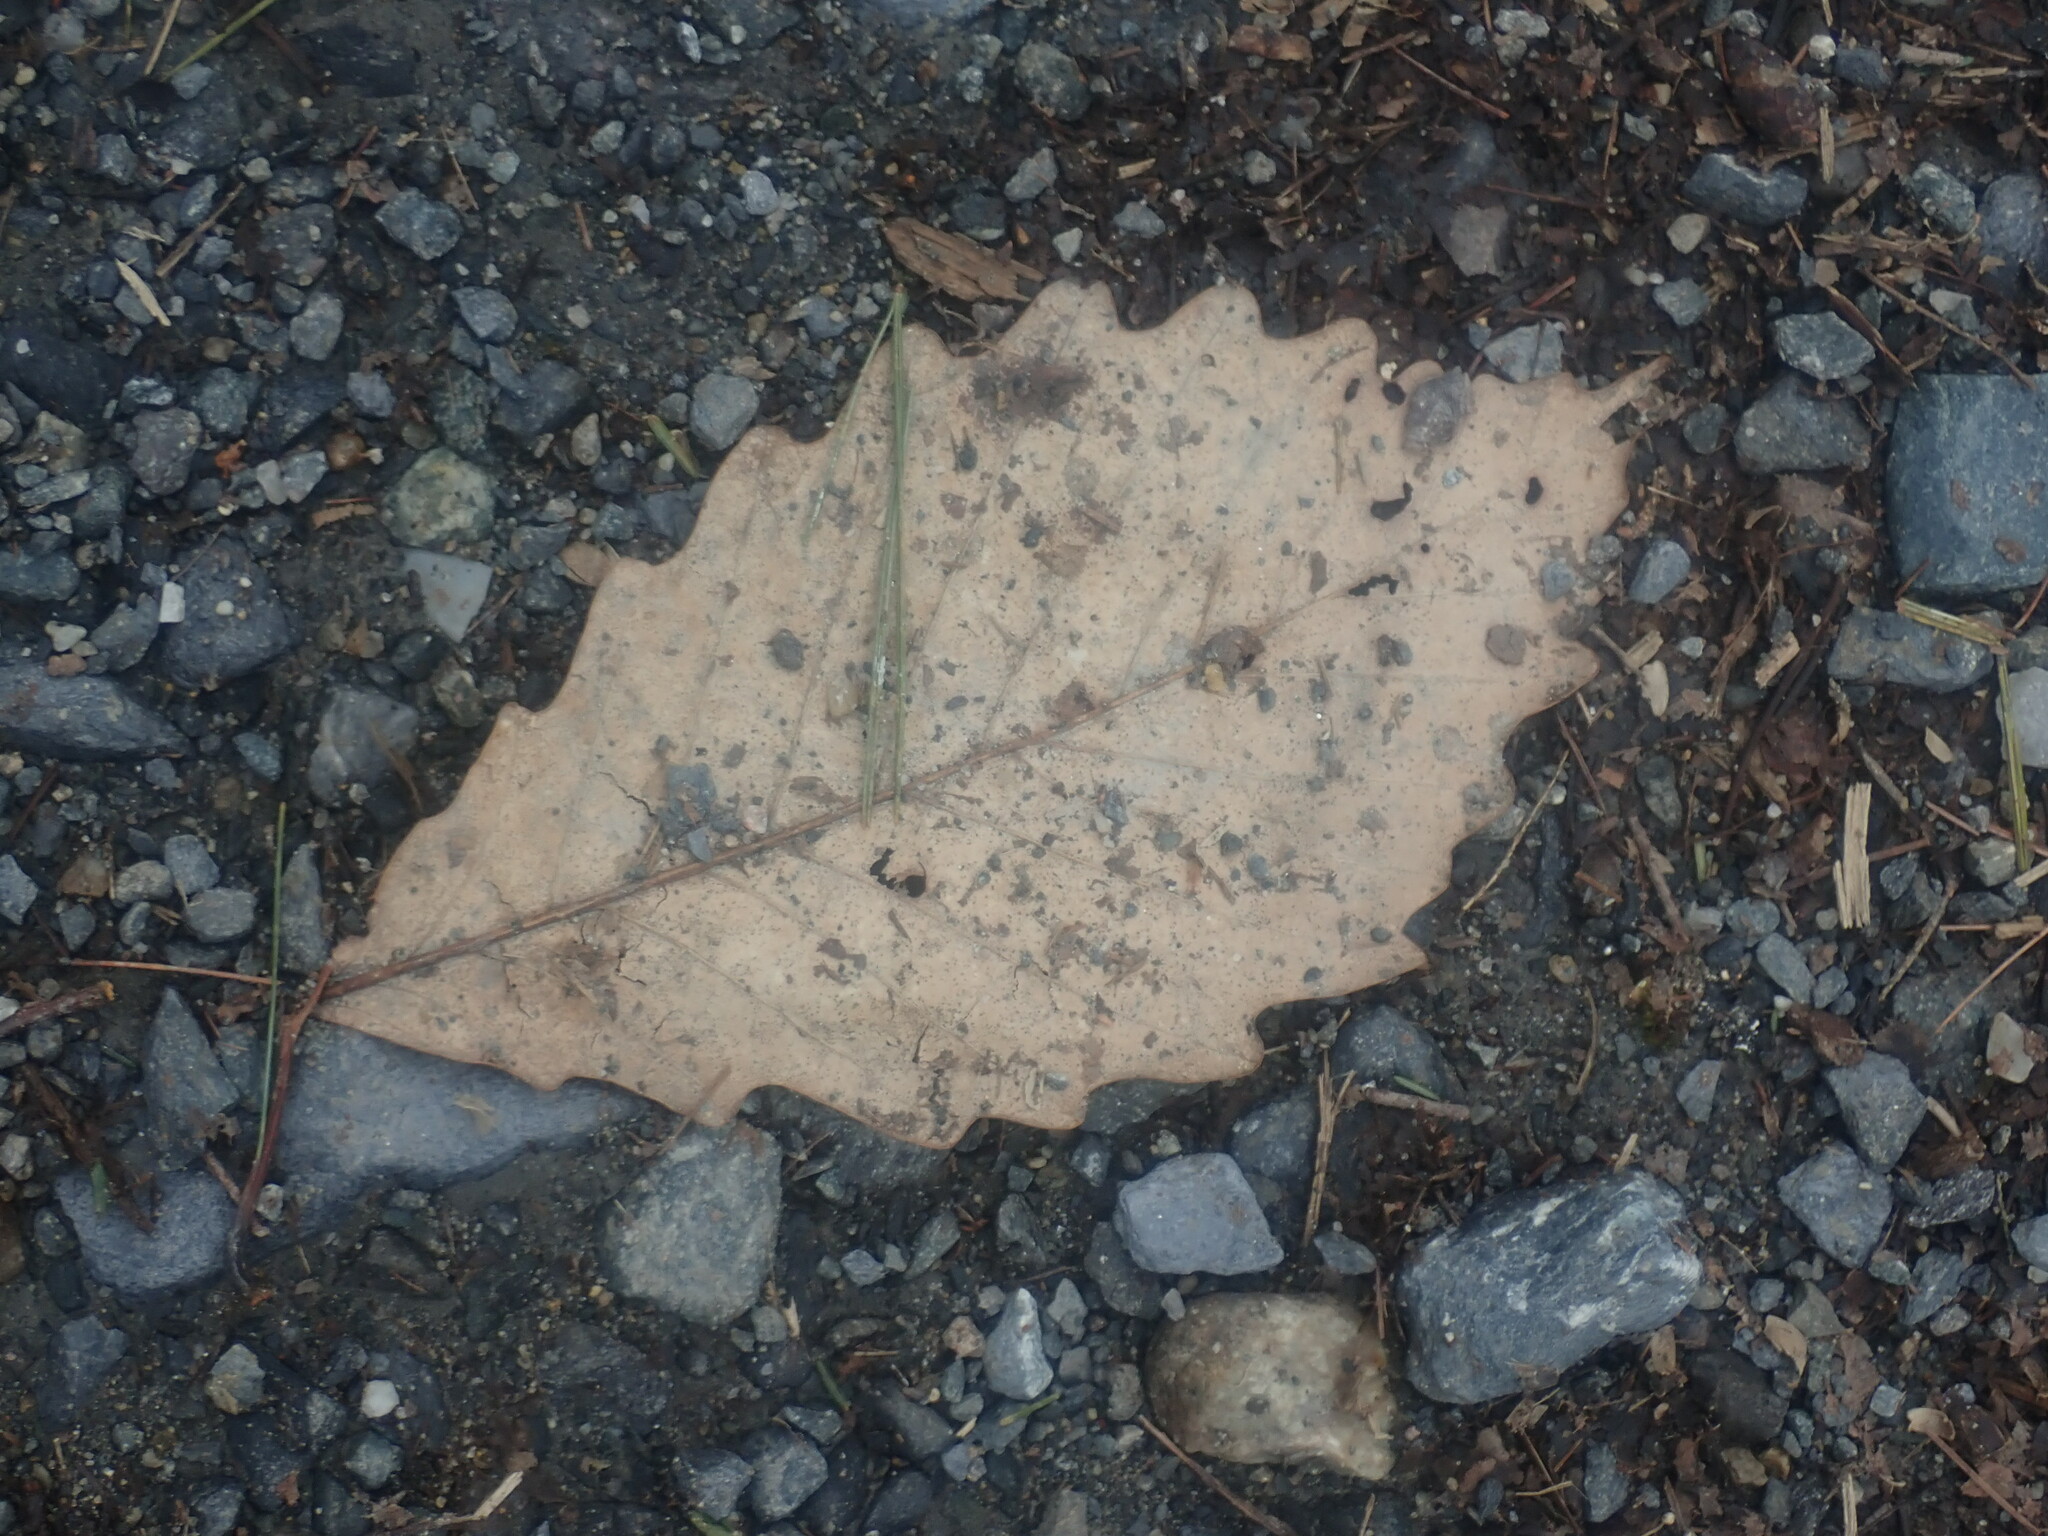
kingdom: Plantae
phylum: Tracheophyta
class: Magnoliopsida
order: Fagales
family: Fagaceae
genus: Quercus
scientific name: Quercus montana
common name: Chestnut oak
